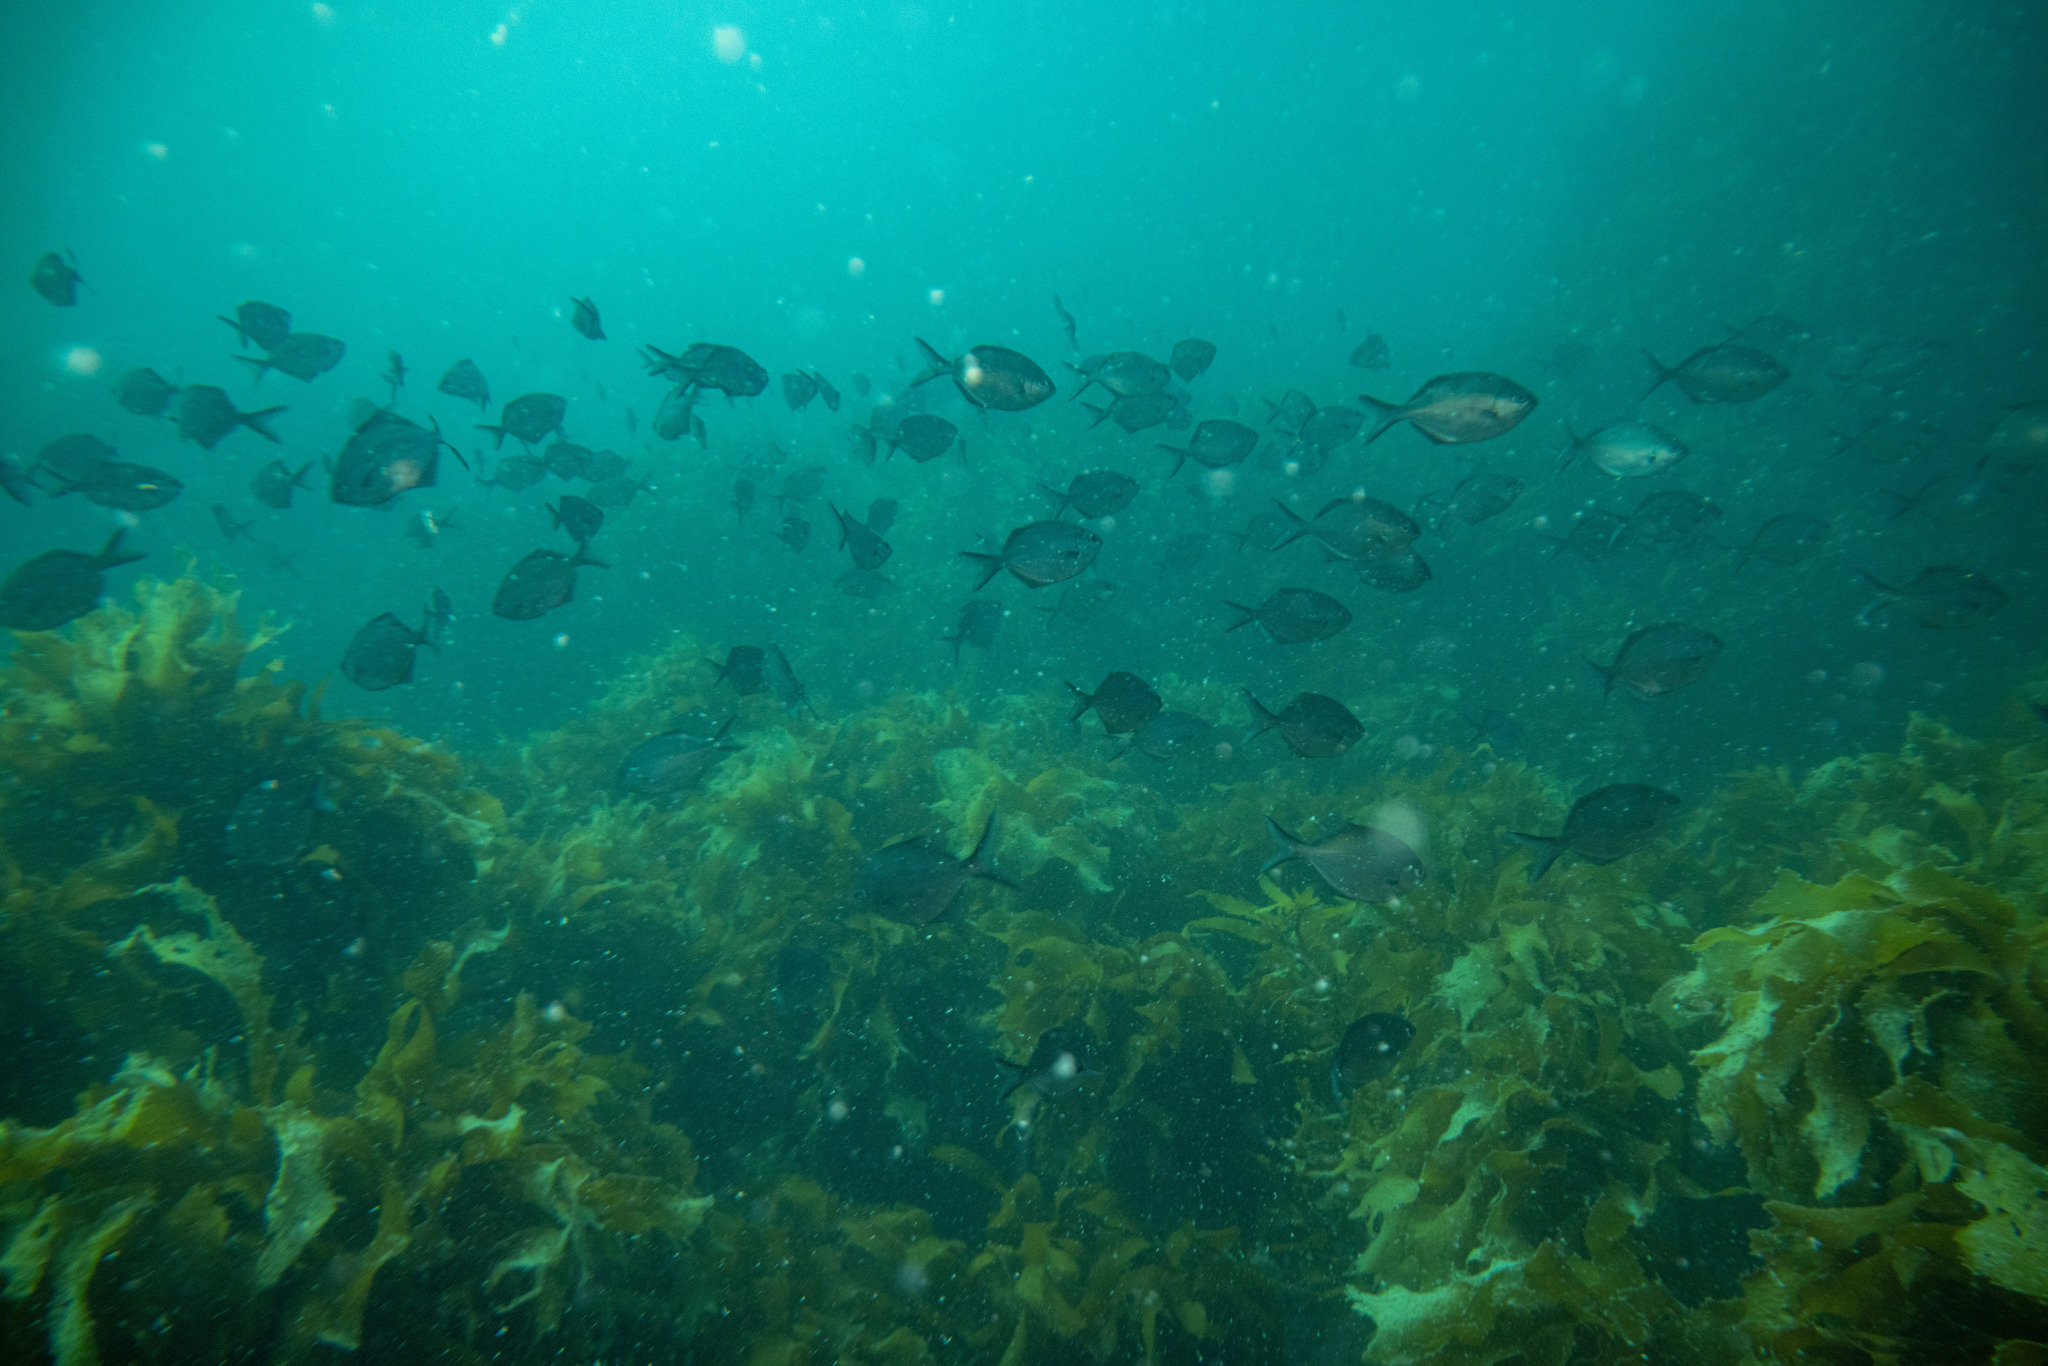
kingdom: Animalia
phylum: Chordata
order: Perciformes
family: Kyphosidae
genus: Scorpis
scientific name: Scorpis lineolata
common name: Sweep
